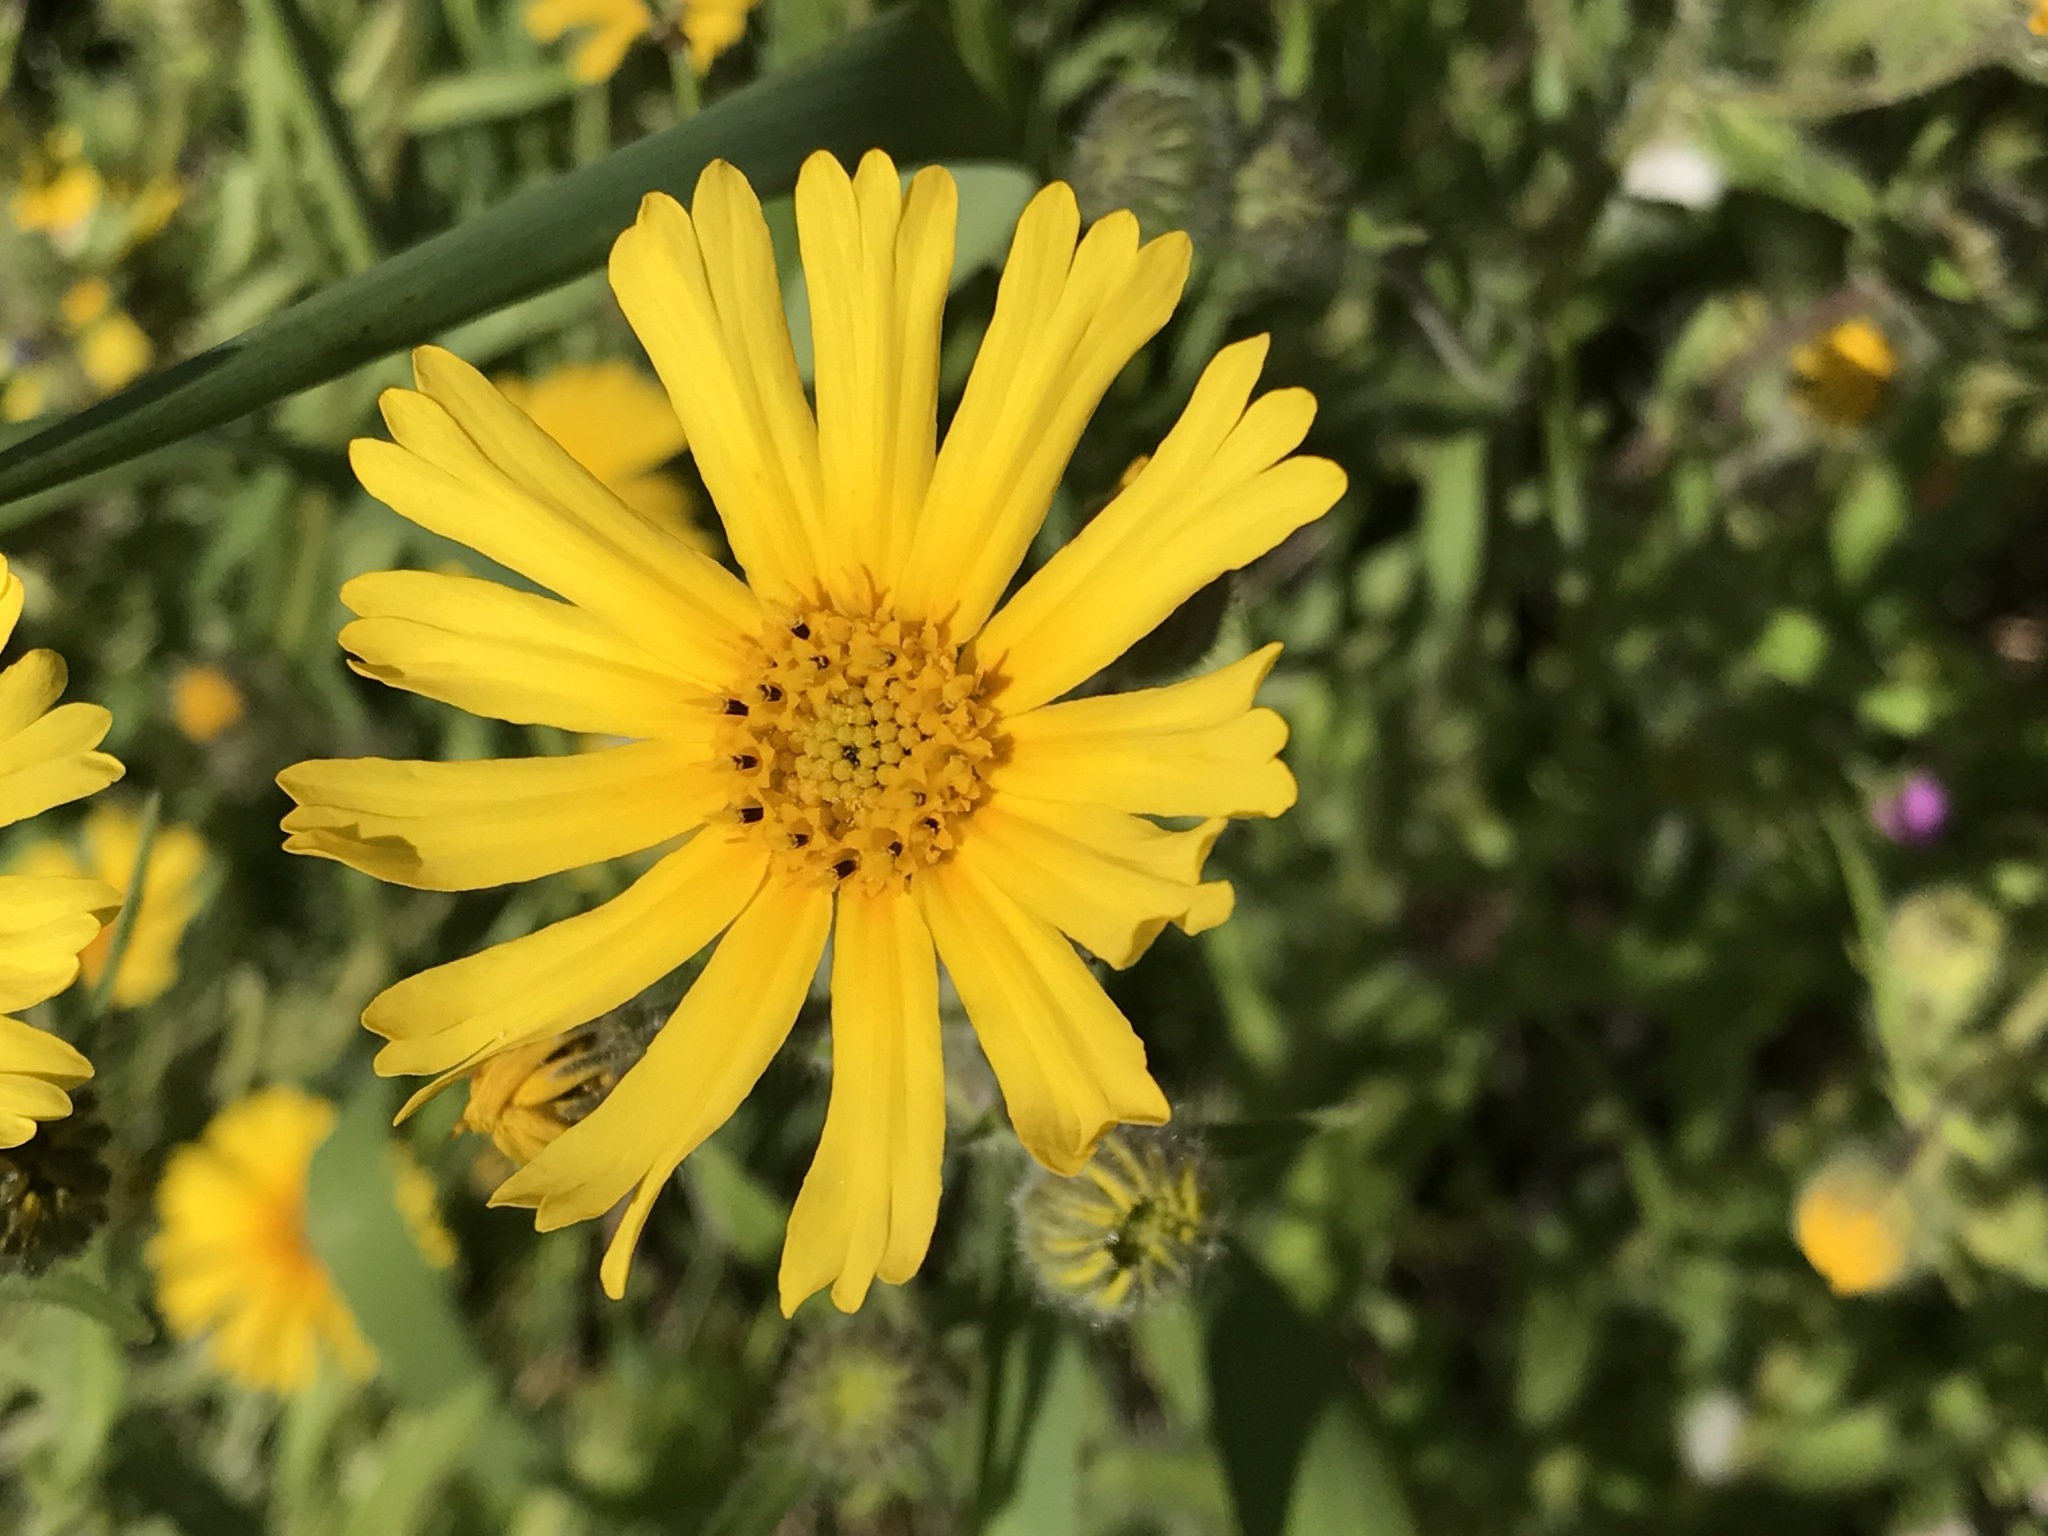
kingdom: Plantae
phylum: Tracheophyta
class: Magnoliopsida
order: Asterales
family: Asteraceae
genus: Madia
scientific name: Madia elegans
